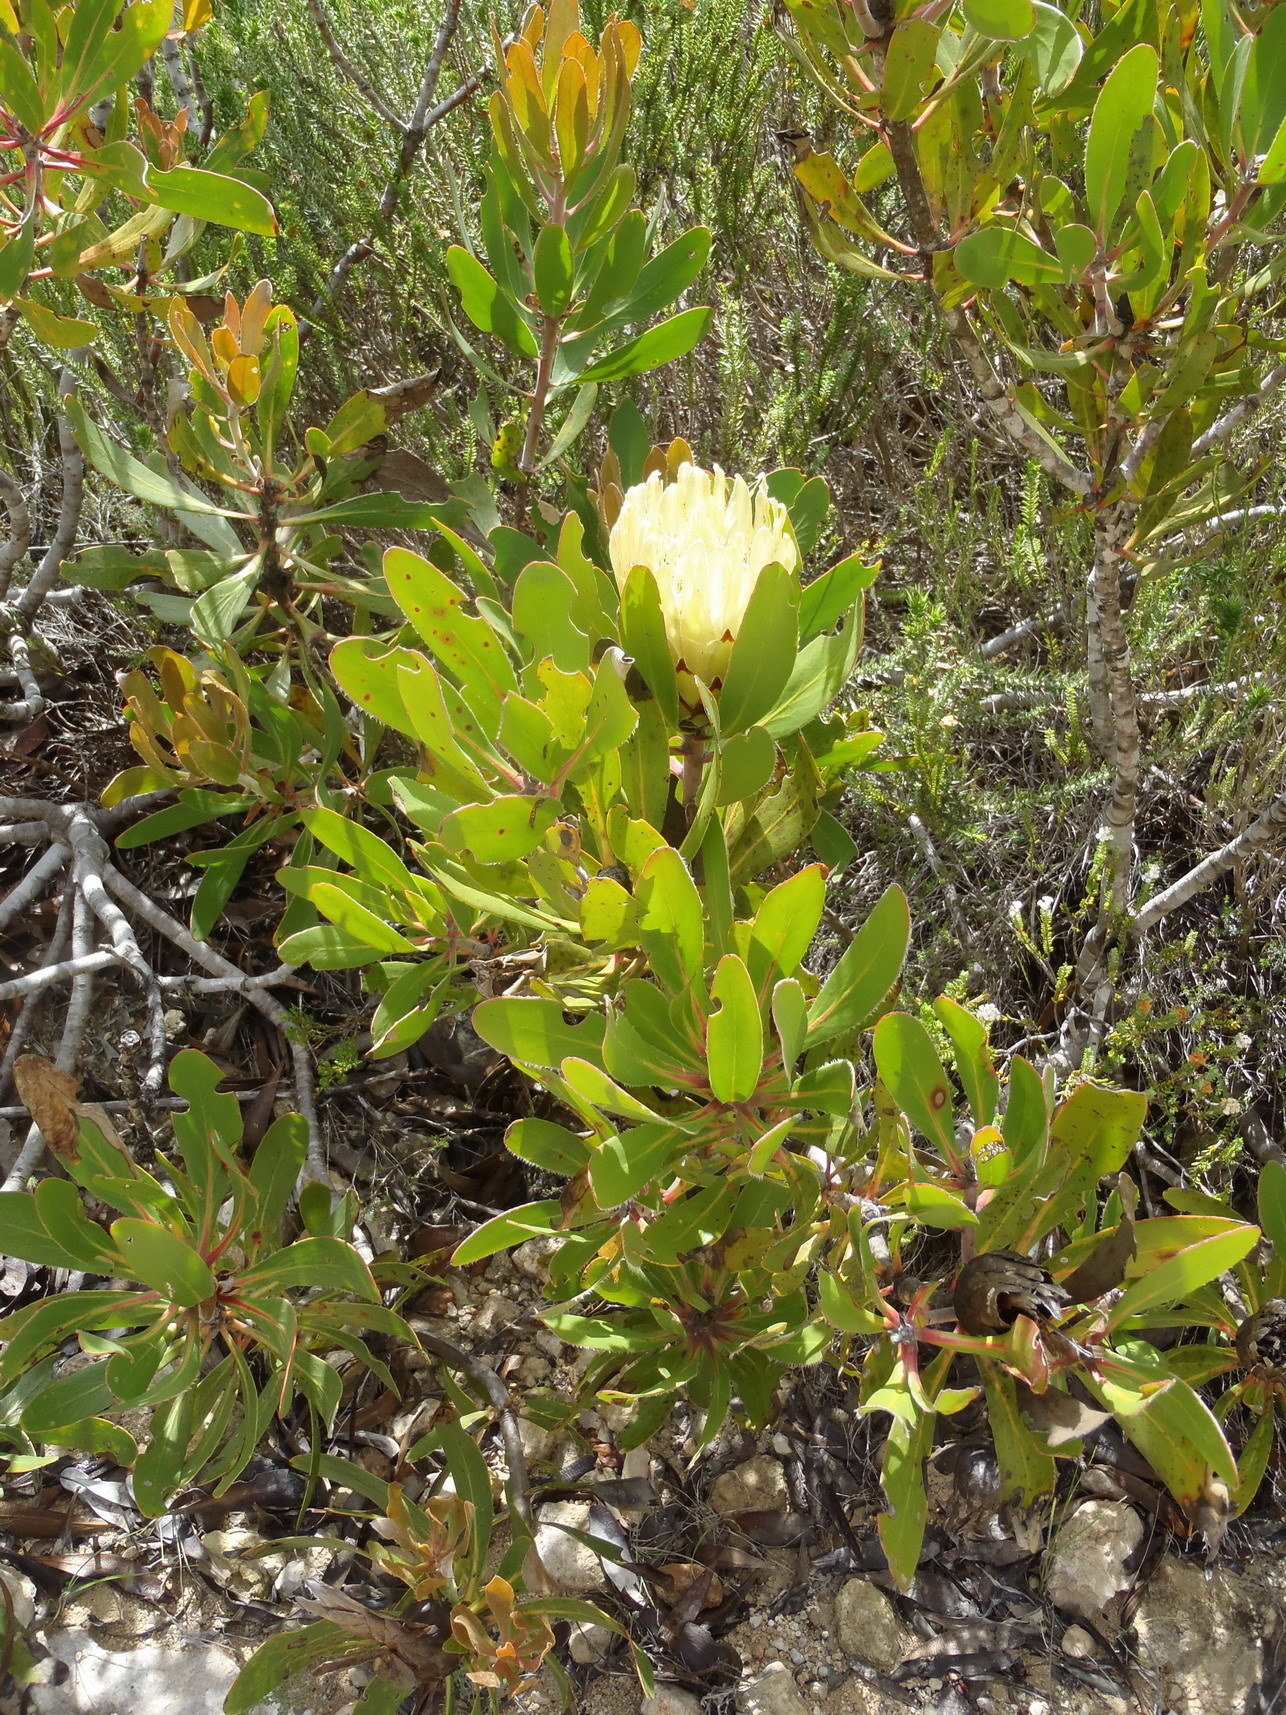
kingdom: Plantae
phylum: Tracheophyta
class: Magnoliopsida
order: Proteales
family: Proteaceae
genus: Protea
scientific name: Protea obtusifolia
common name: Bredasdorp sugarbush
